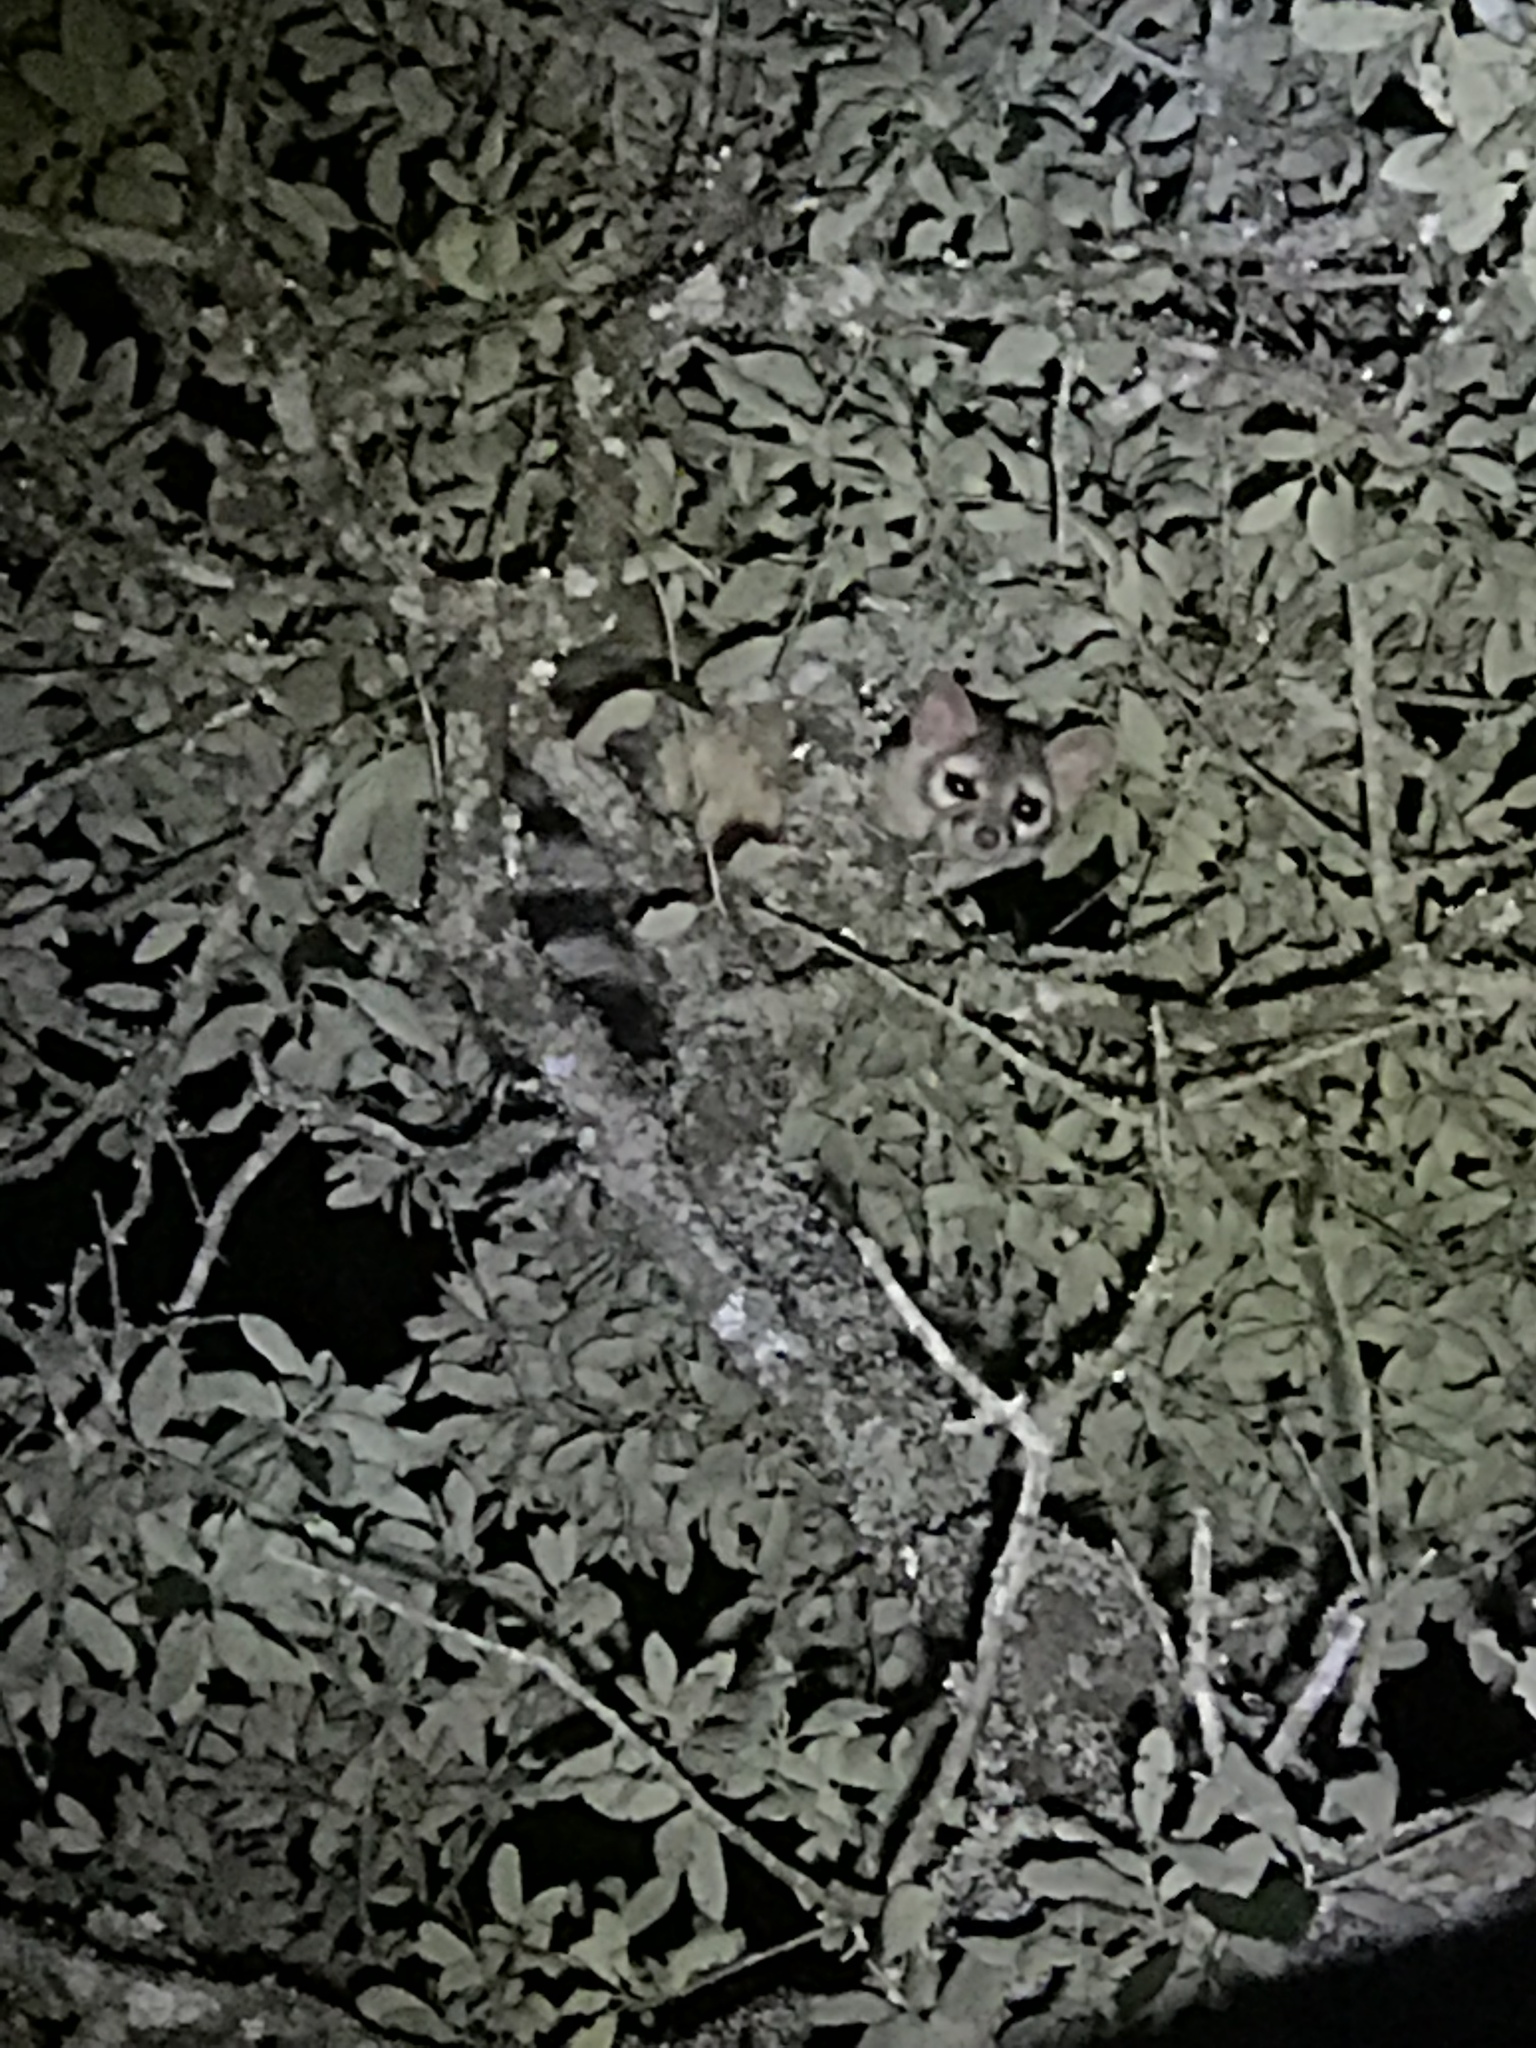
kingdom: Animalia
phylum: Chordata
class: Mammalia
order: Carnivora
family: Procyonidae
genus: Bassariscus
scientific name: Bassariscus astutus
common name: Ringtail
